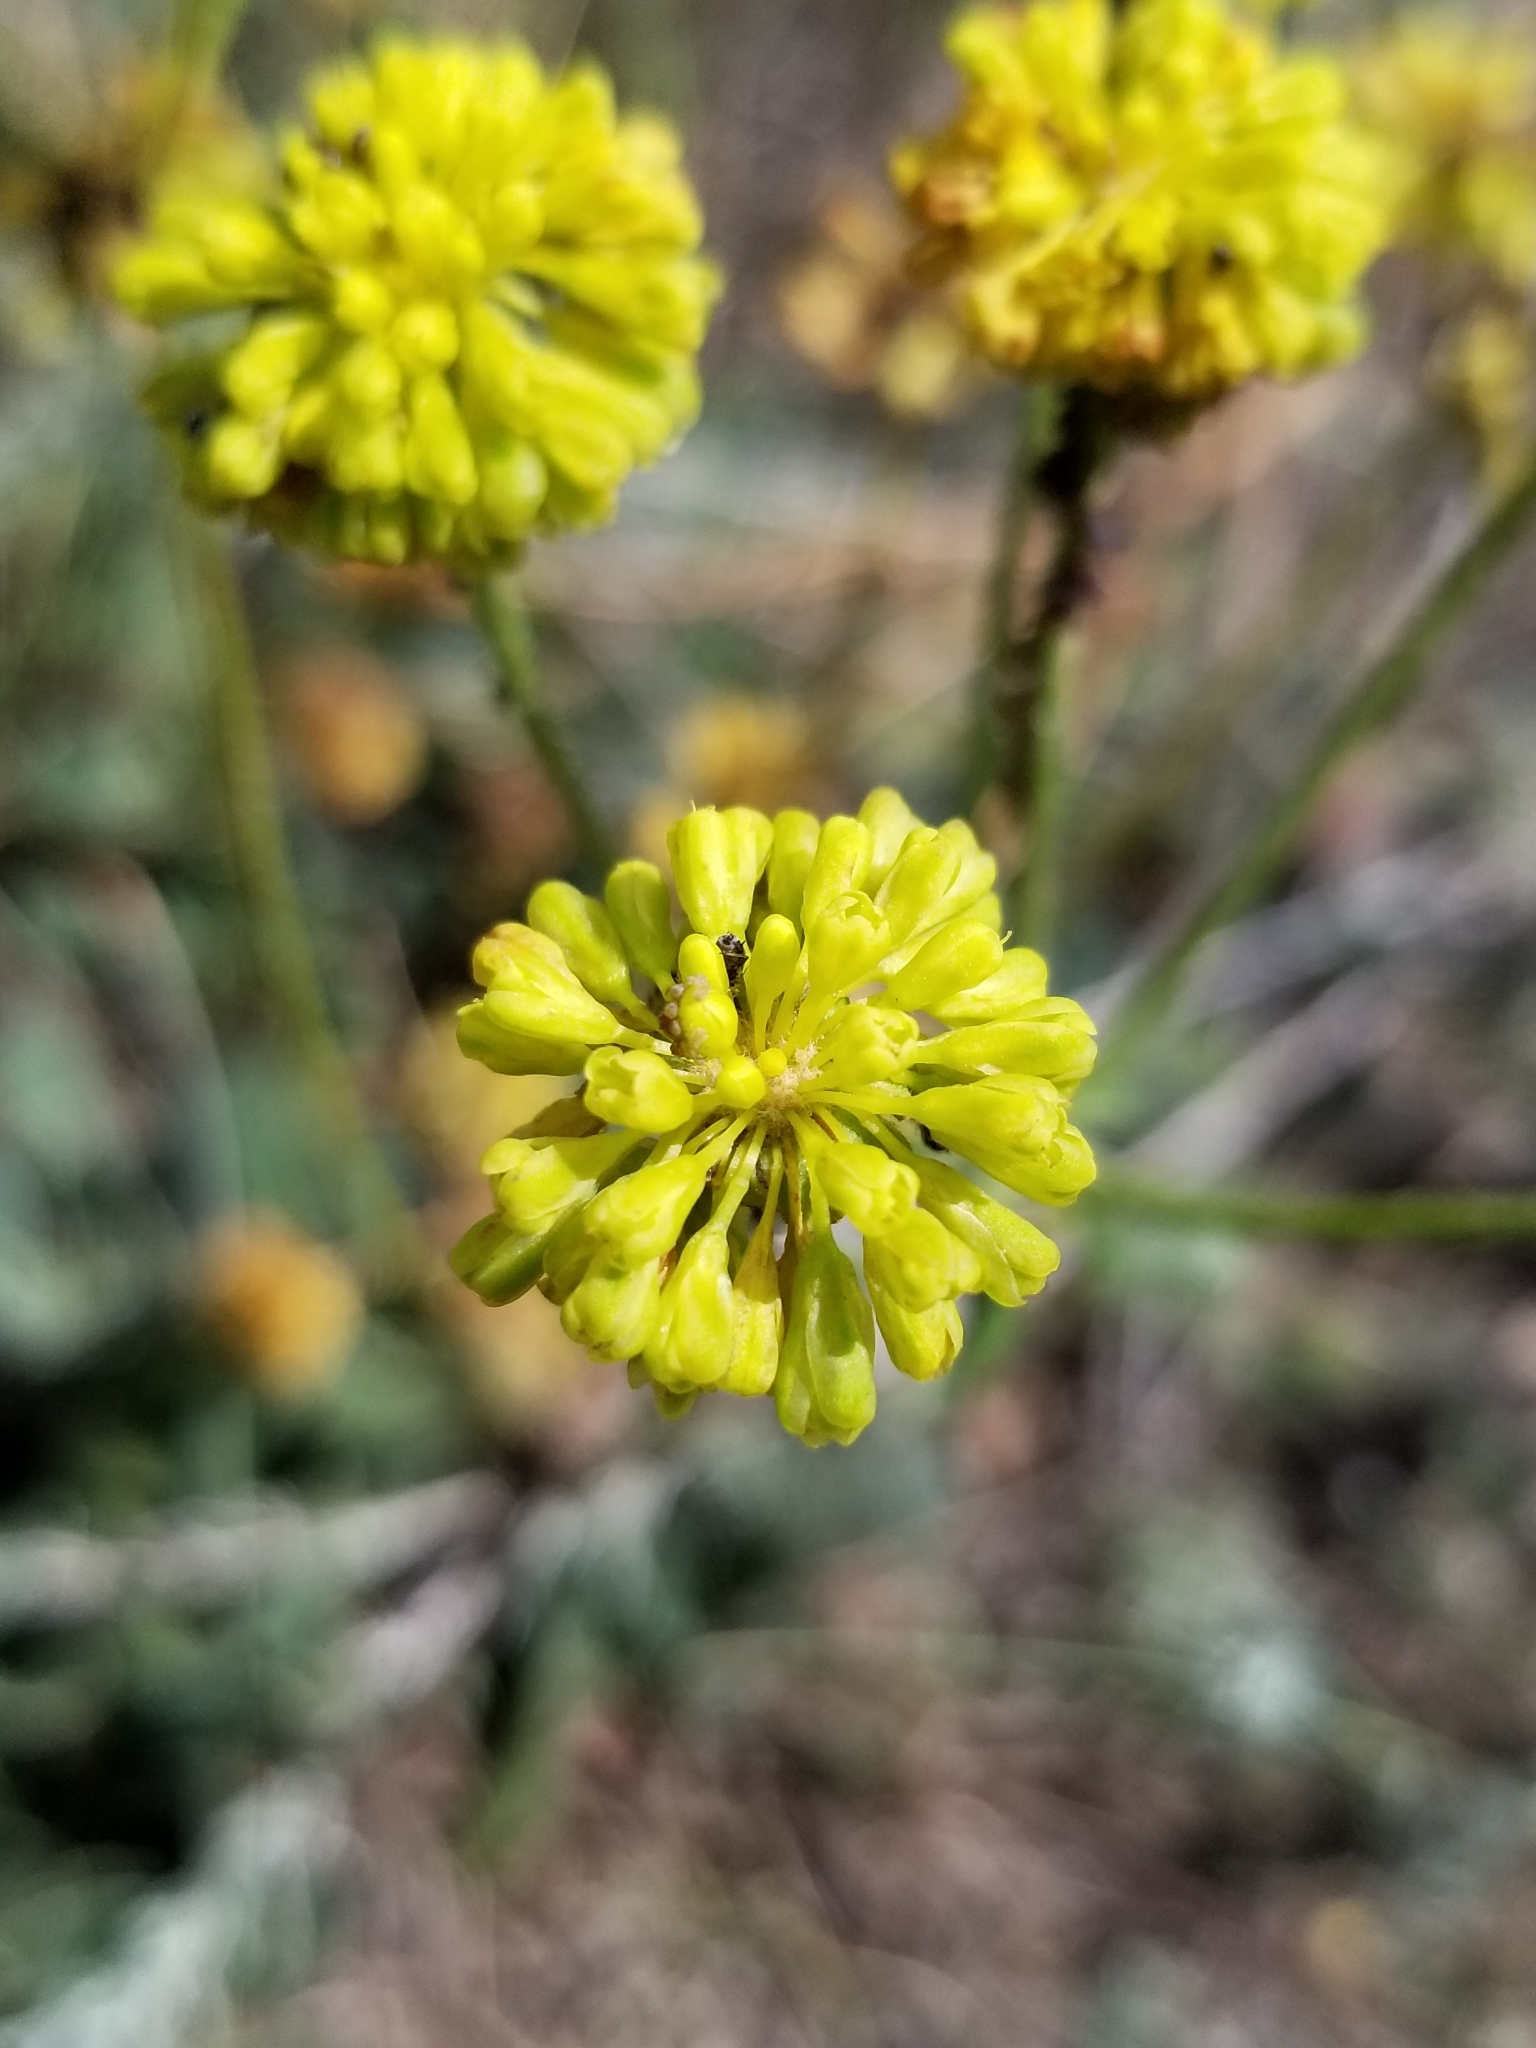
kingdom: Plantae
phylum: Tracheophyta
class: Magnoliopsida
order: Caryophyllales
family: Polygonaceae
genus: Eriogonum
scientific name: Eriogonum umbellatum
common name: Sulfur-buckwheat
